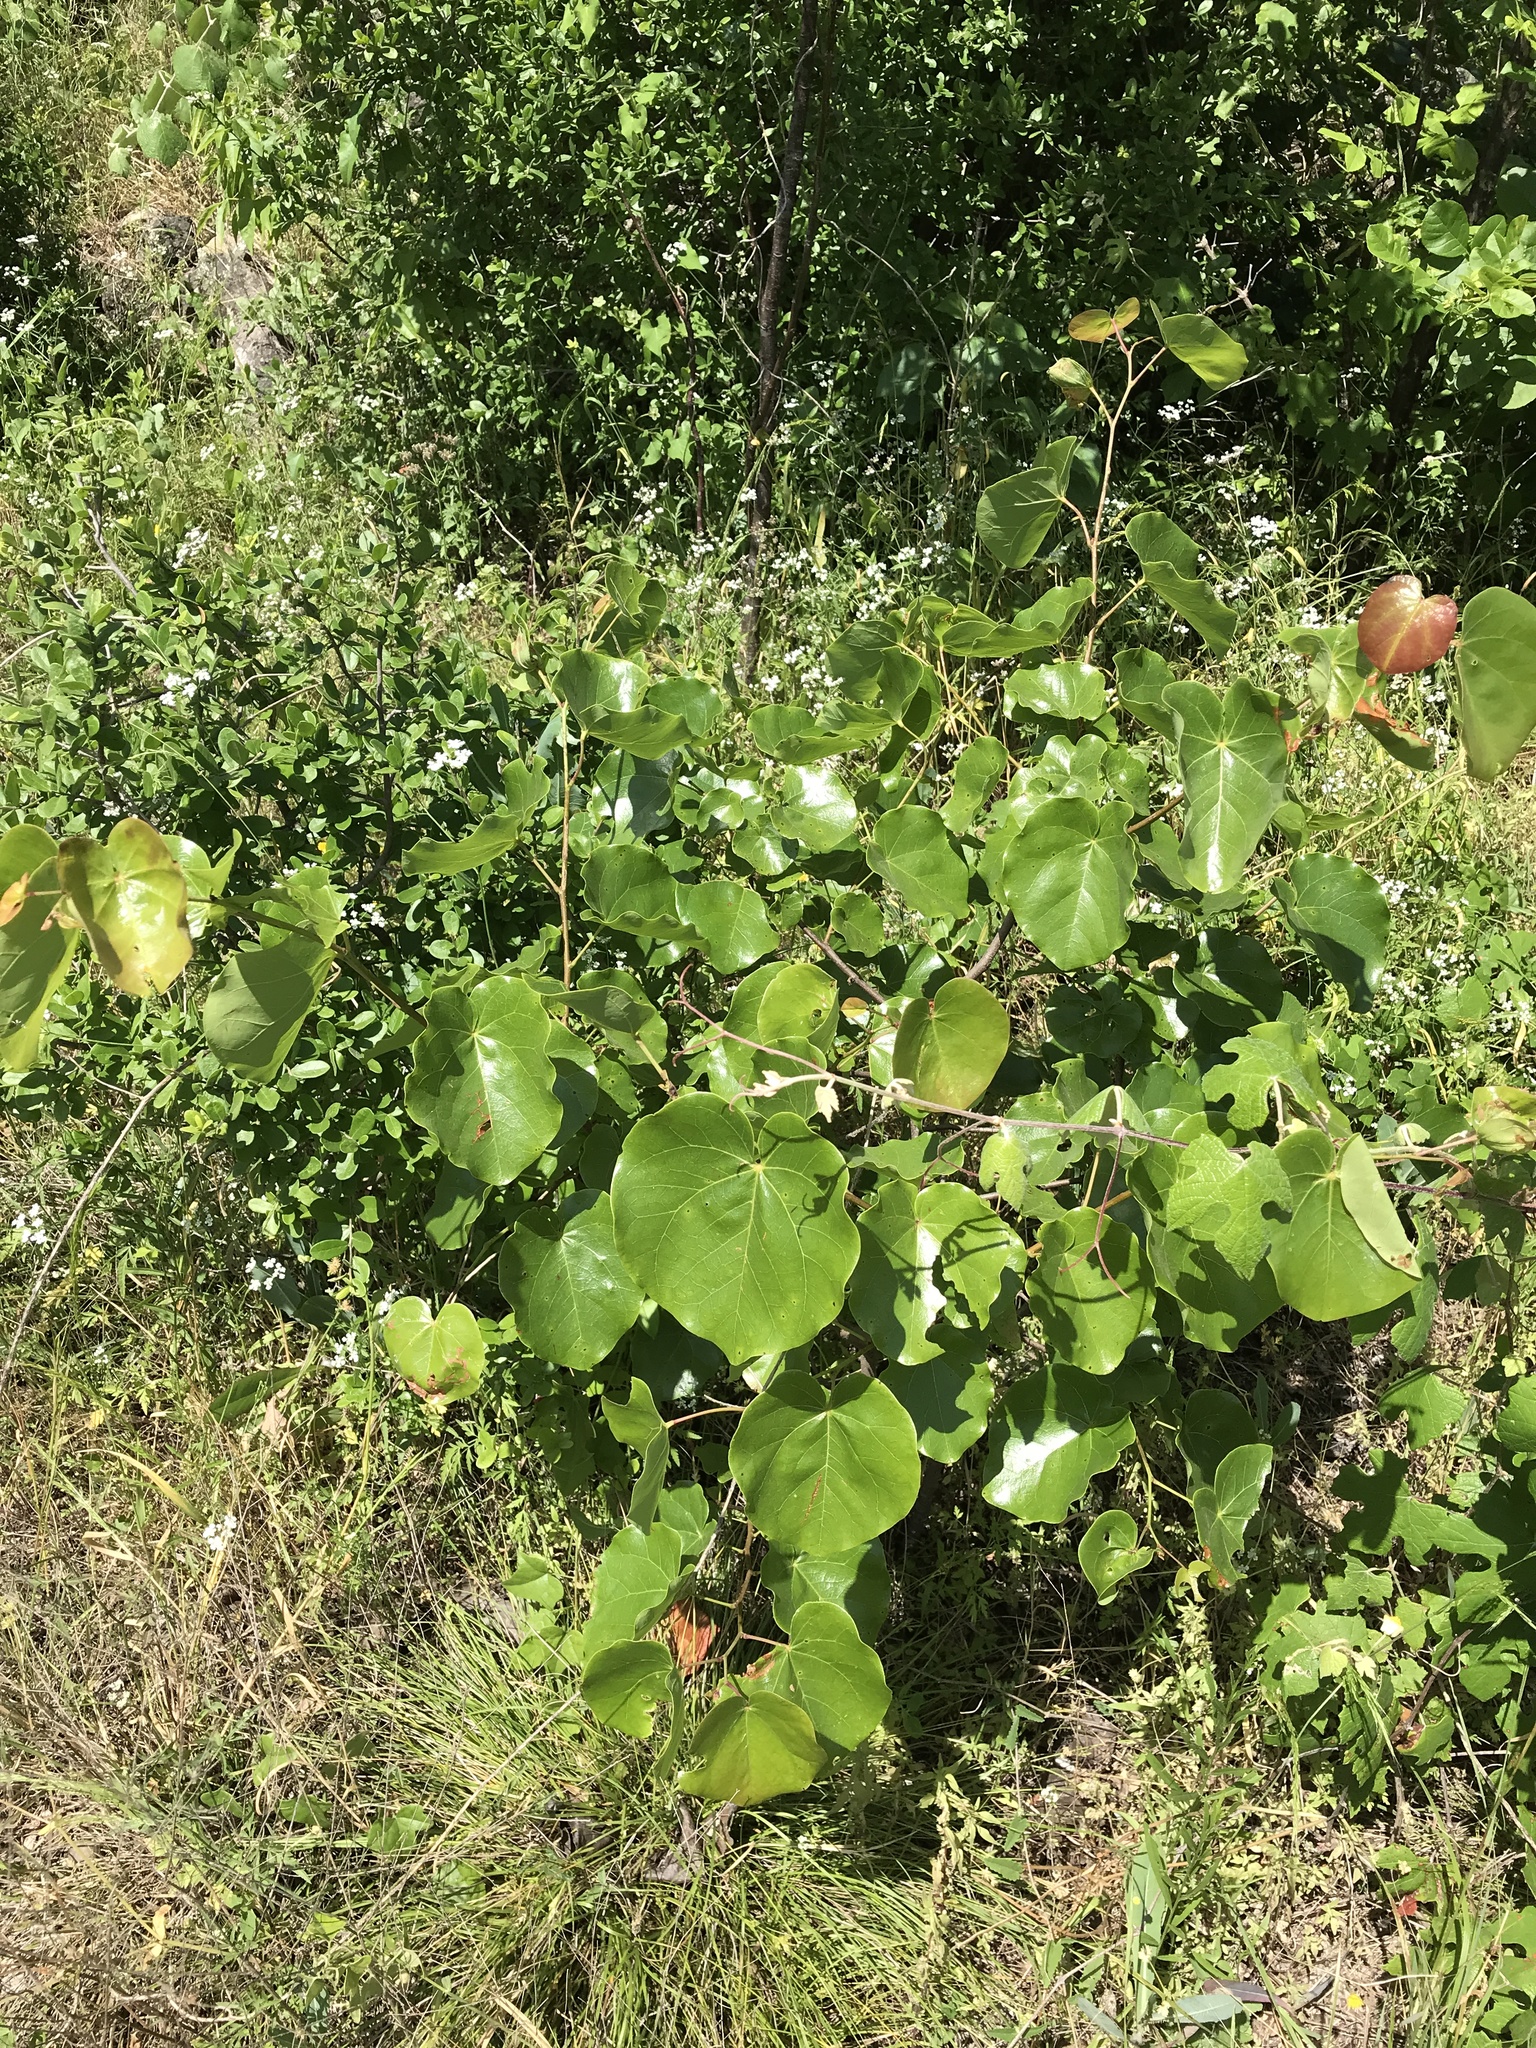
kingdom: Plantae
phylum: Tracheophyta
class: Magnoliopsida
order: Fabales
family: Fabaceae
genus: Cercis
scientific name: Cercis canadensis
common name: Eastern redbud
